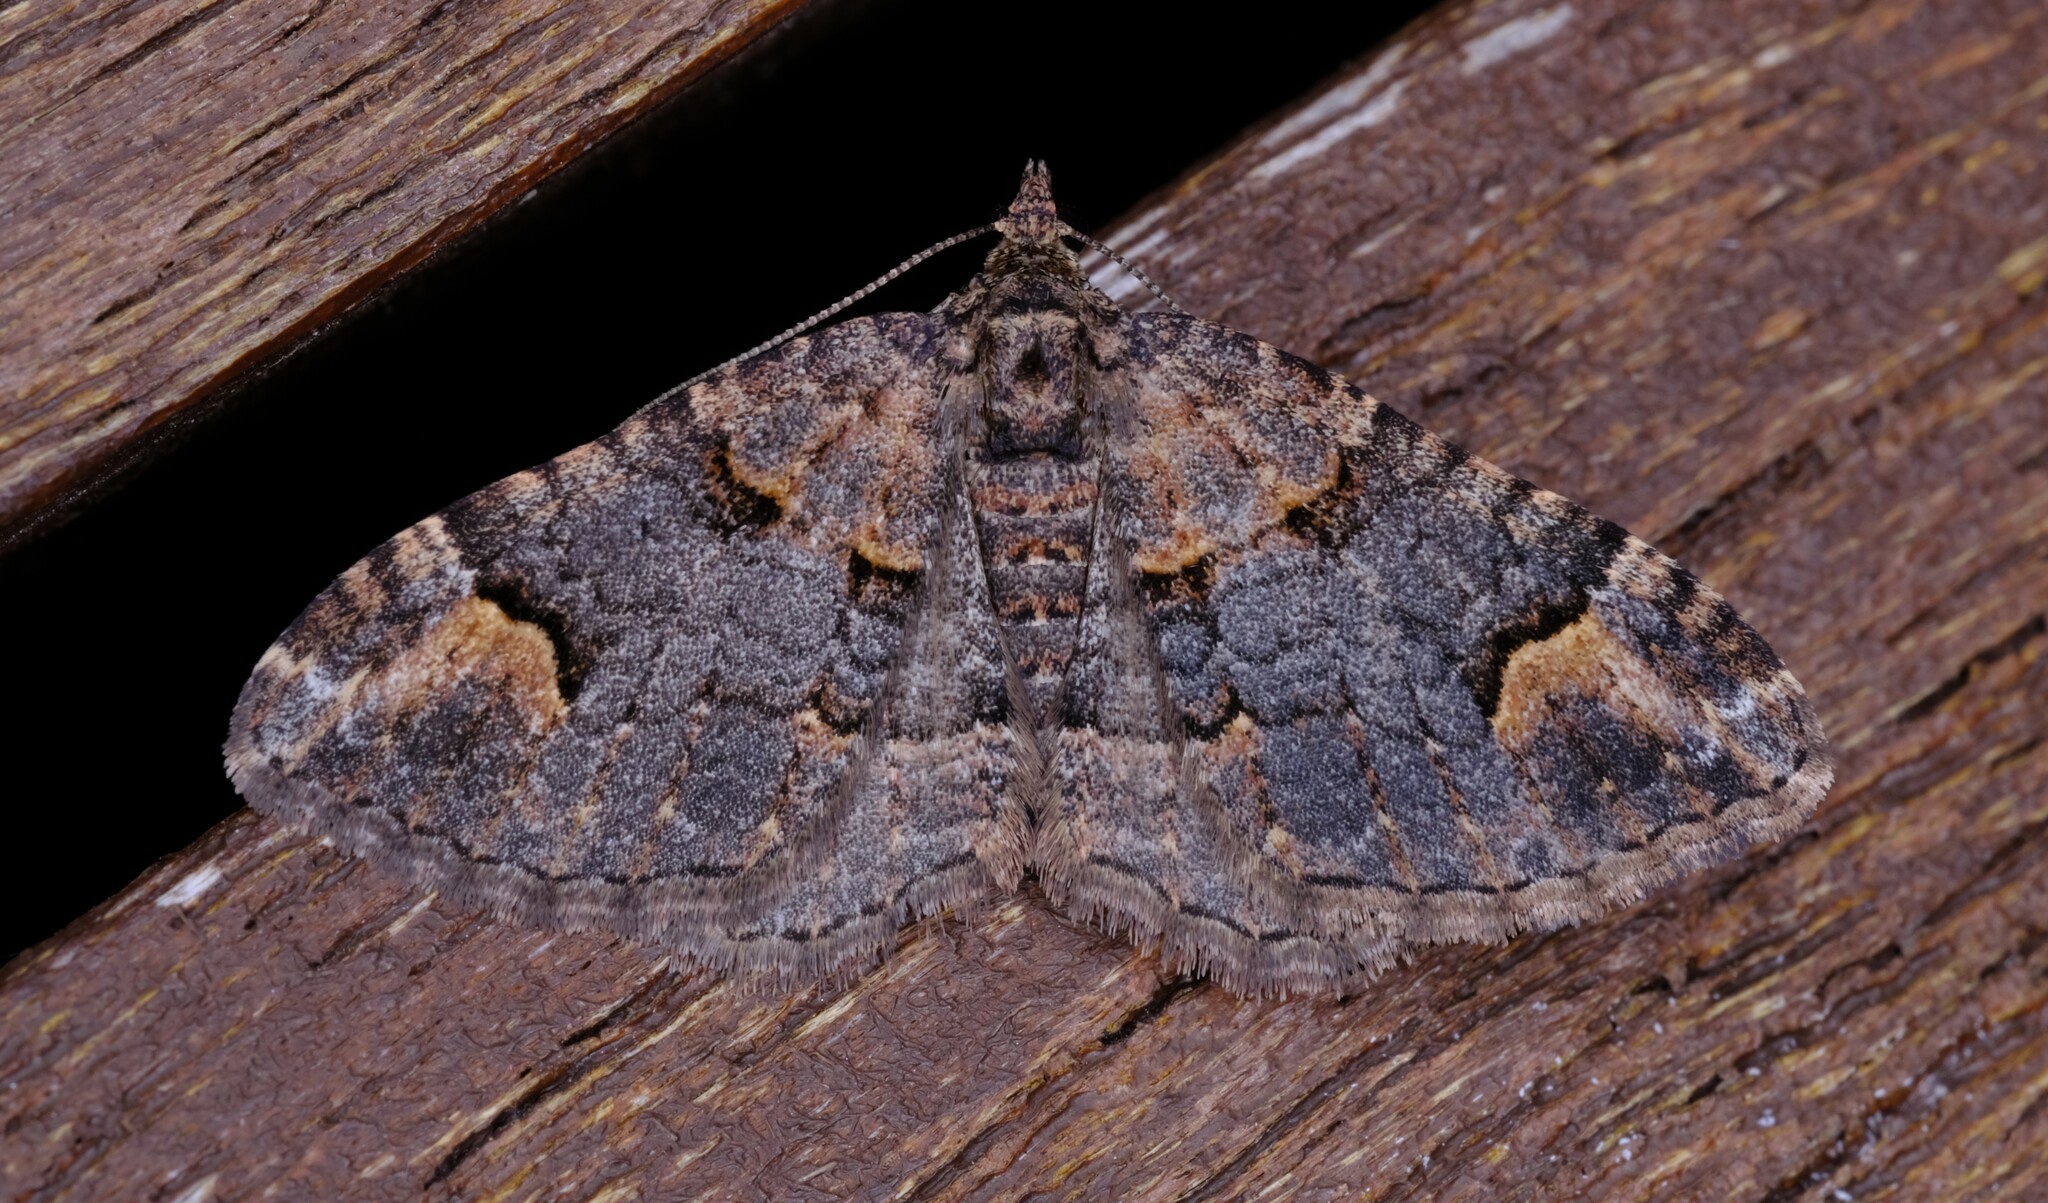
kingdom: Animalia
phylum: Arthropoda
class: Insecta
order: Lepidoptera
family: Geometridae
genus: Epyaxa
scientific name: Epyaxa sodaliata
